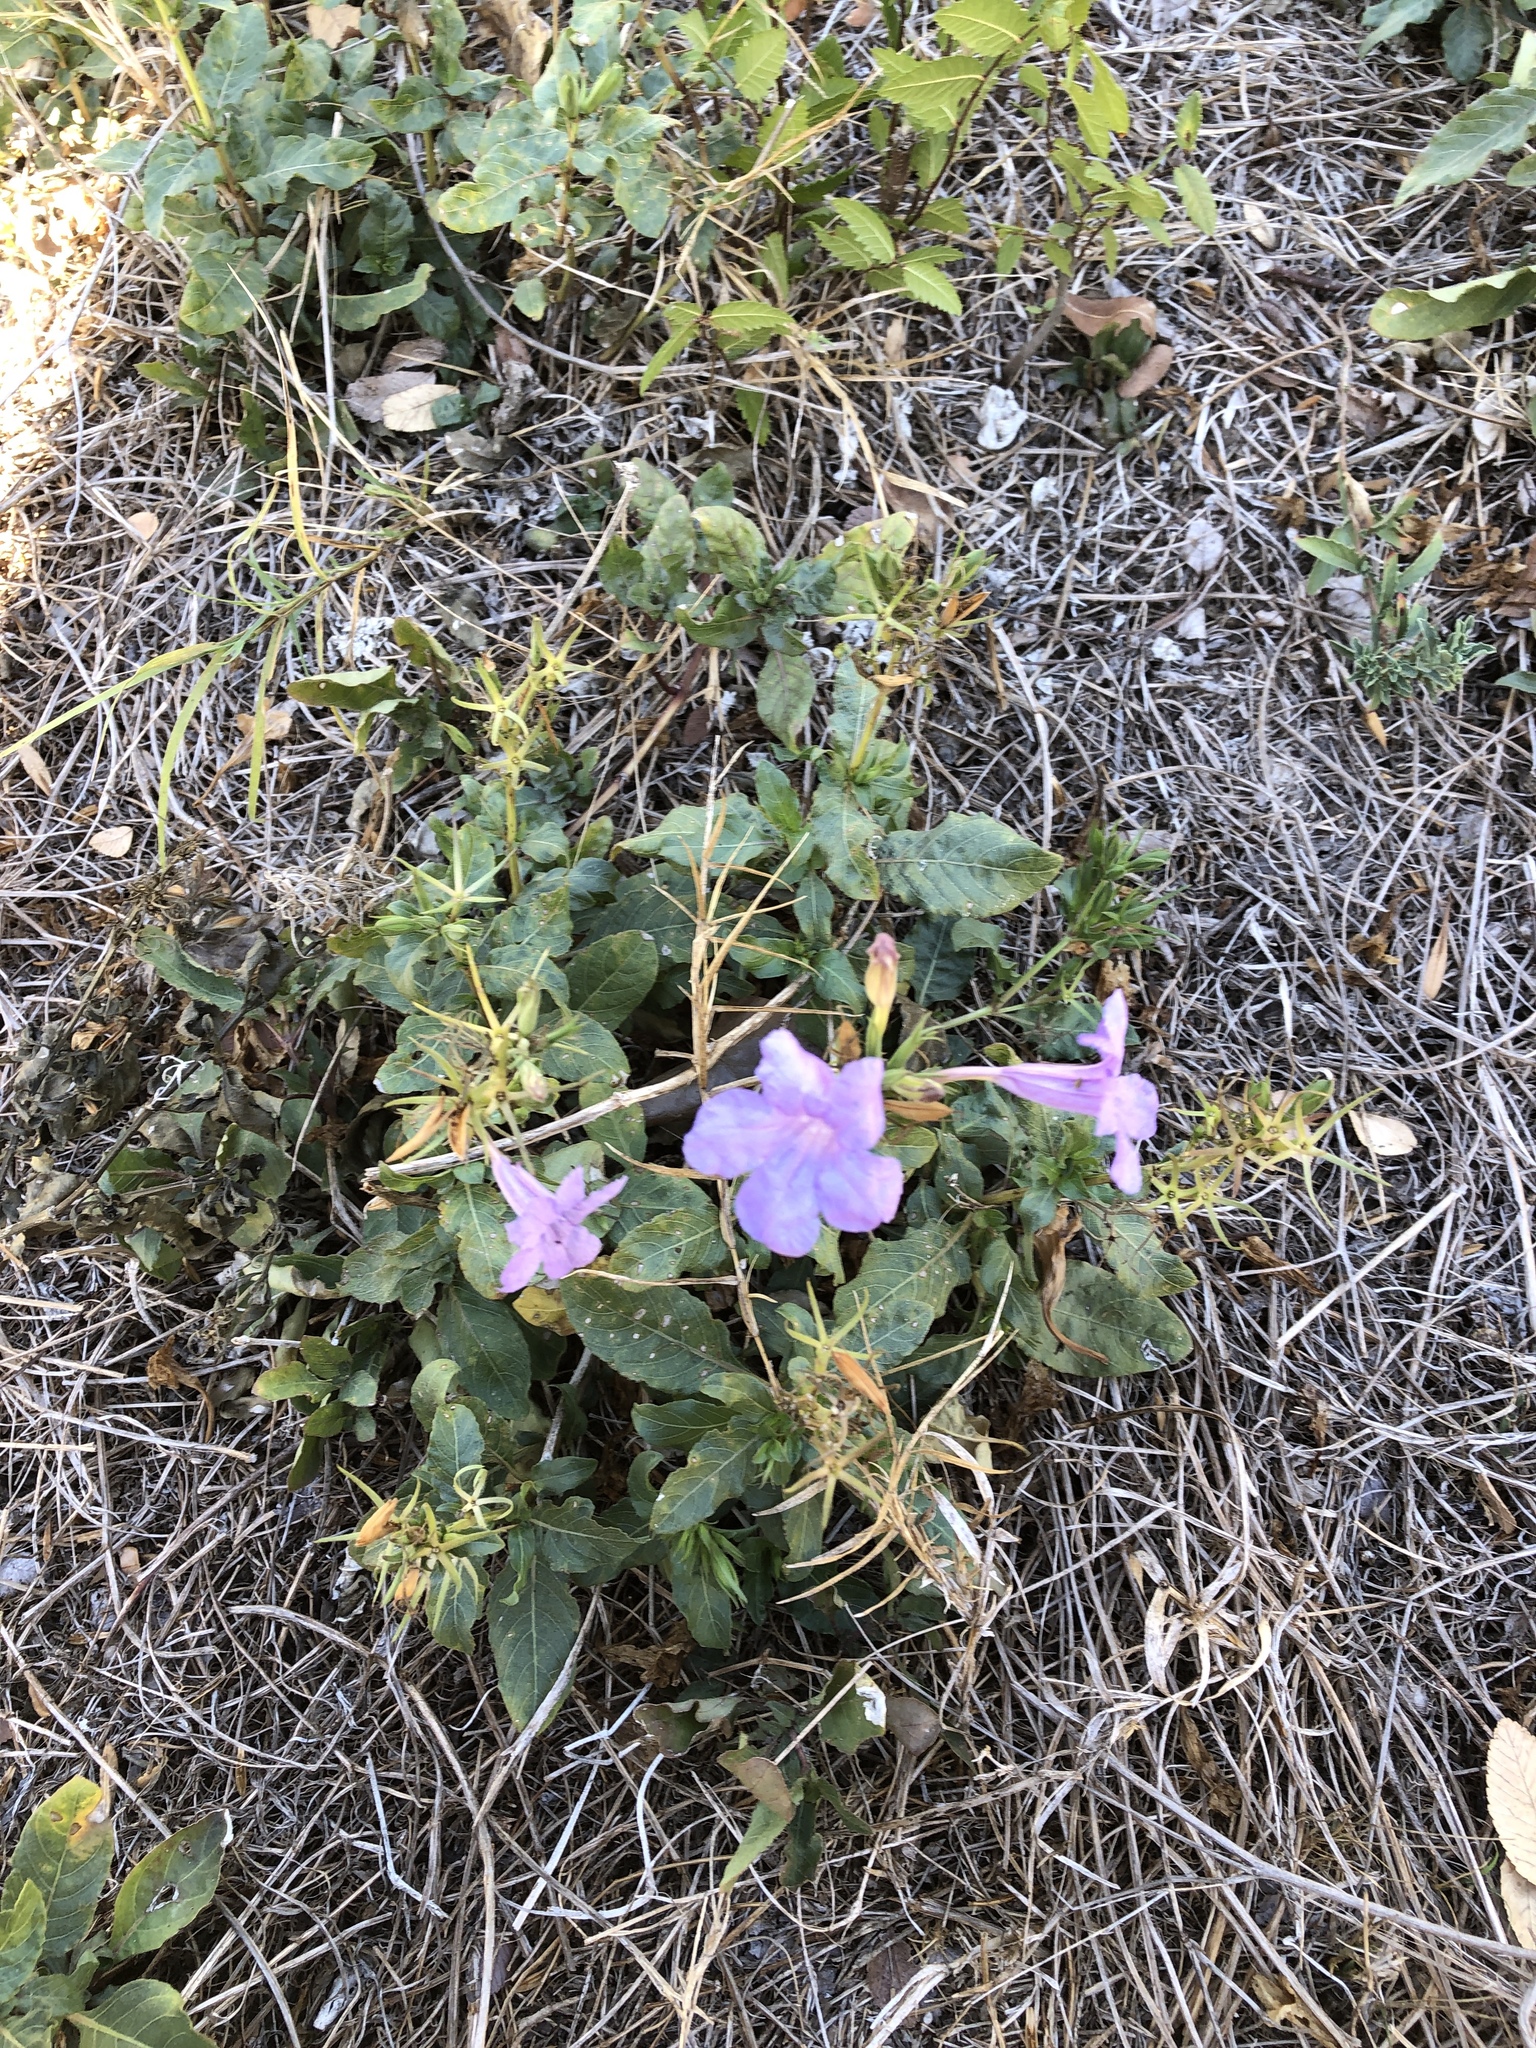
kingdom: Plantae
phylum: Tracheophyta
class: Magnoliopsida
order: Lamiales
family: Acanthaceae
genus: Ruellia
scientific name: Ruellia ciliatiflora
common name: Hairyflower wild petunia
